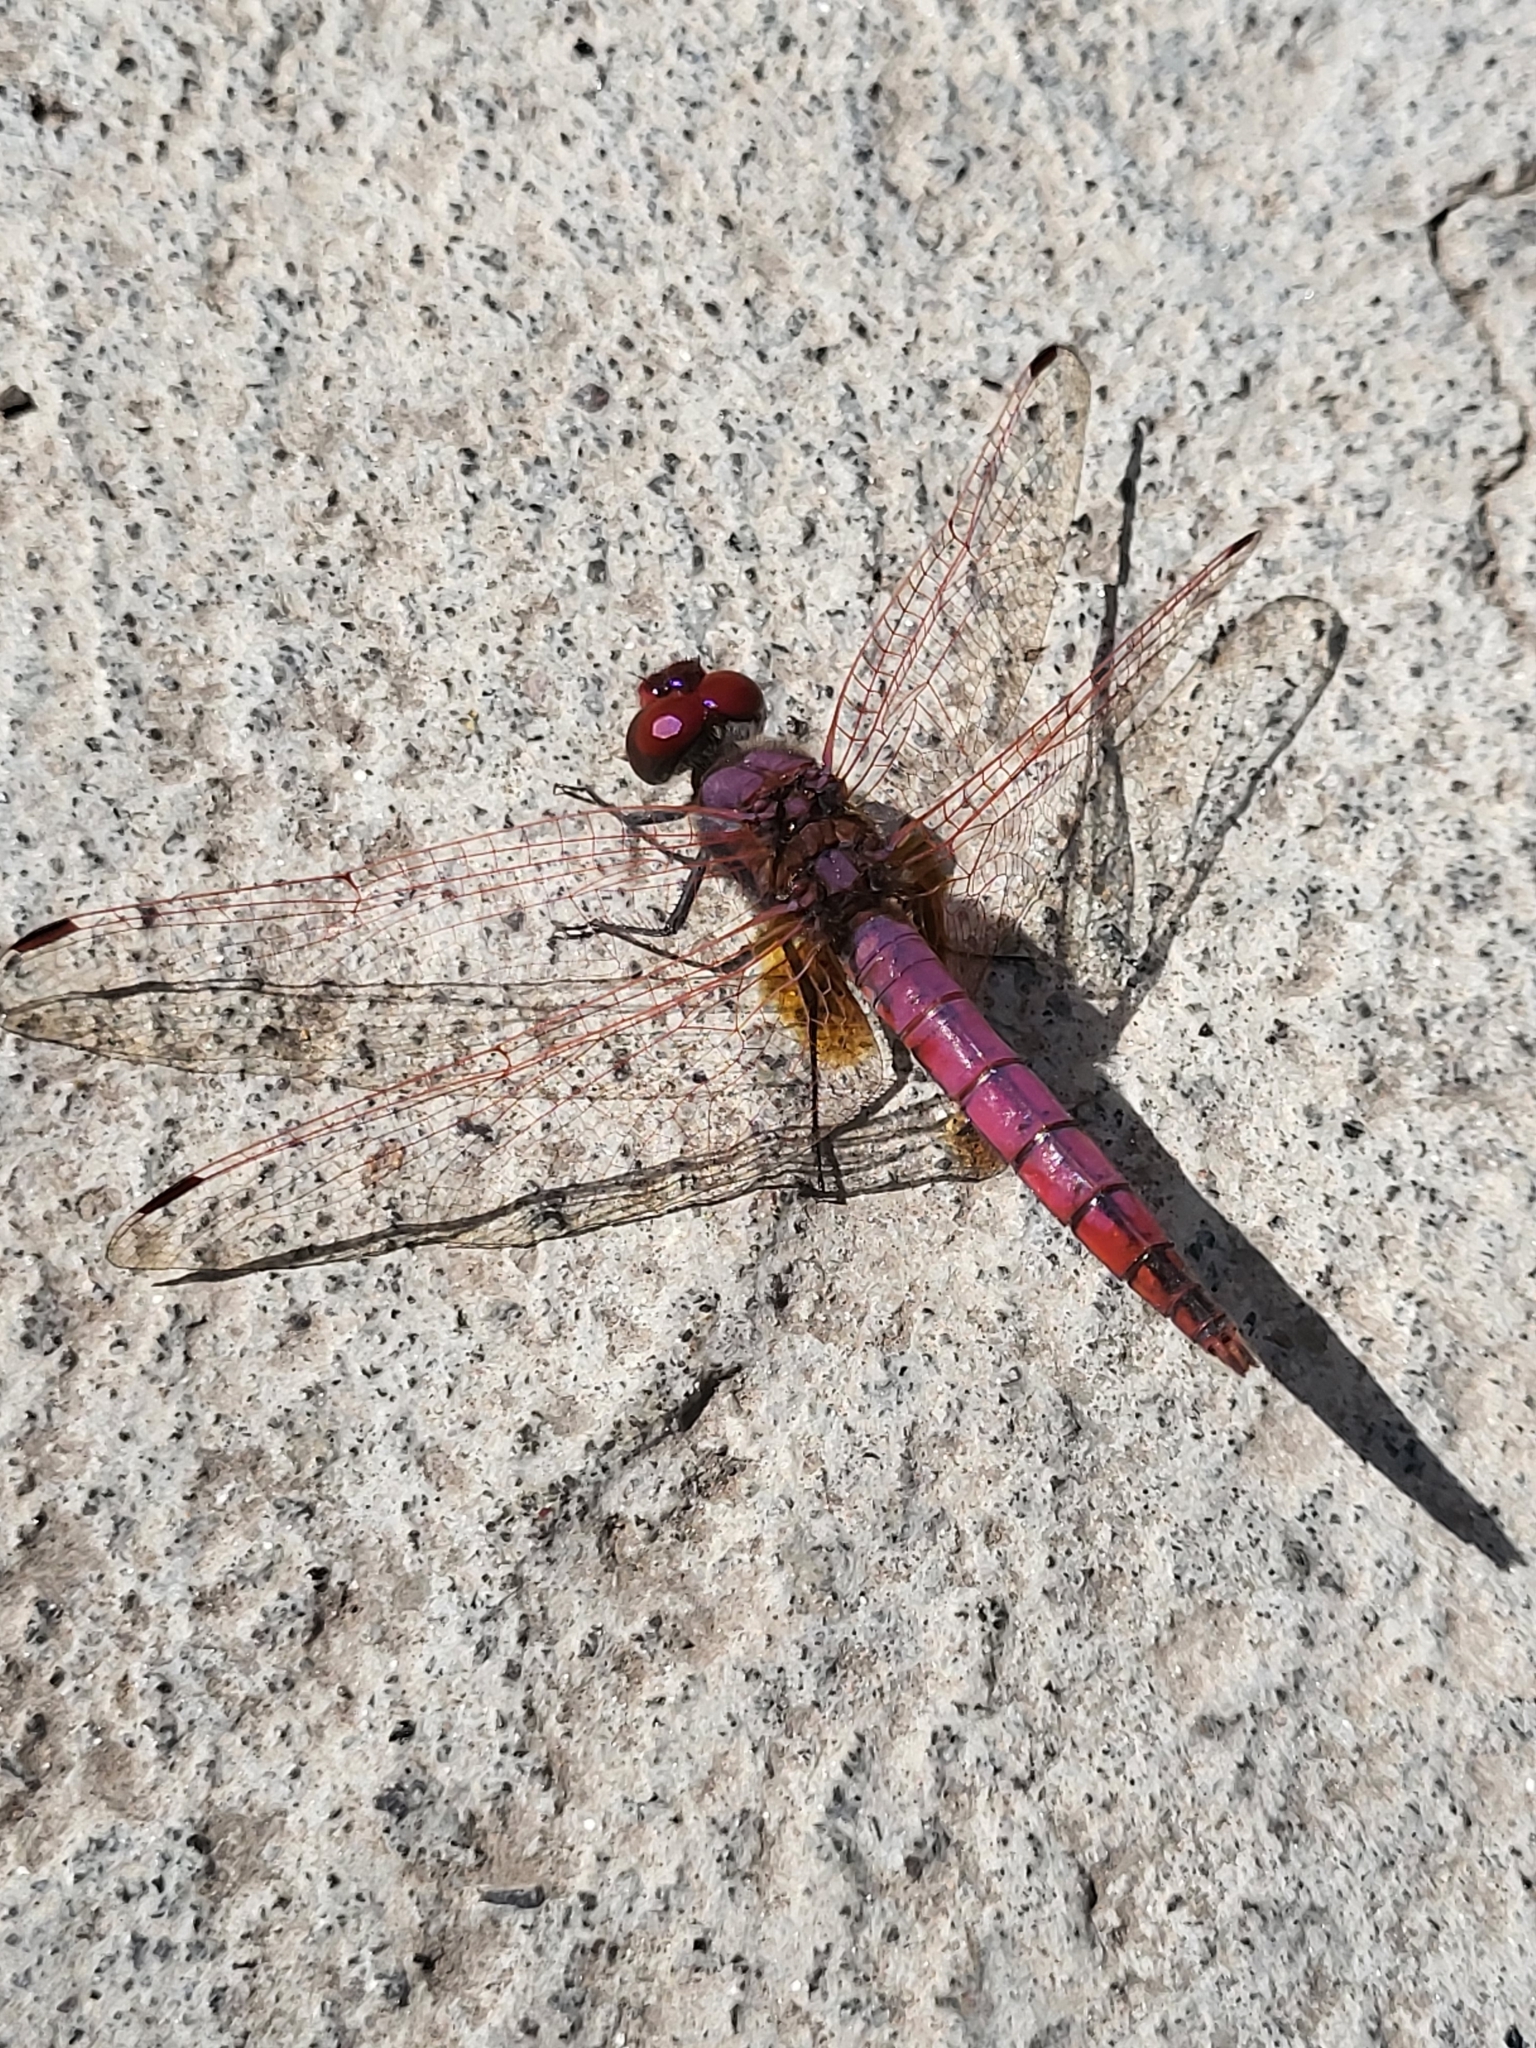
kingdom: Animalia
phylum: Arthropoda
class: Insecta
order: Odonata
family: Libellulidae
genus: Trithemis
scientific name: Trithemis annulata
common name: Violet dropwing
